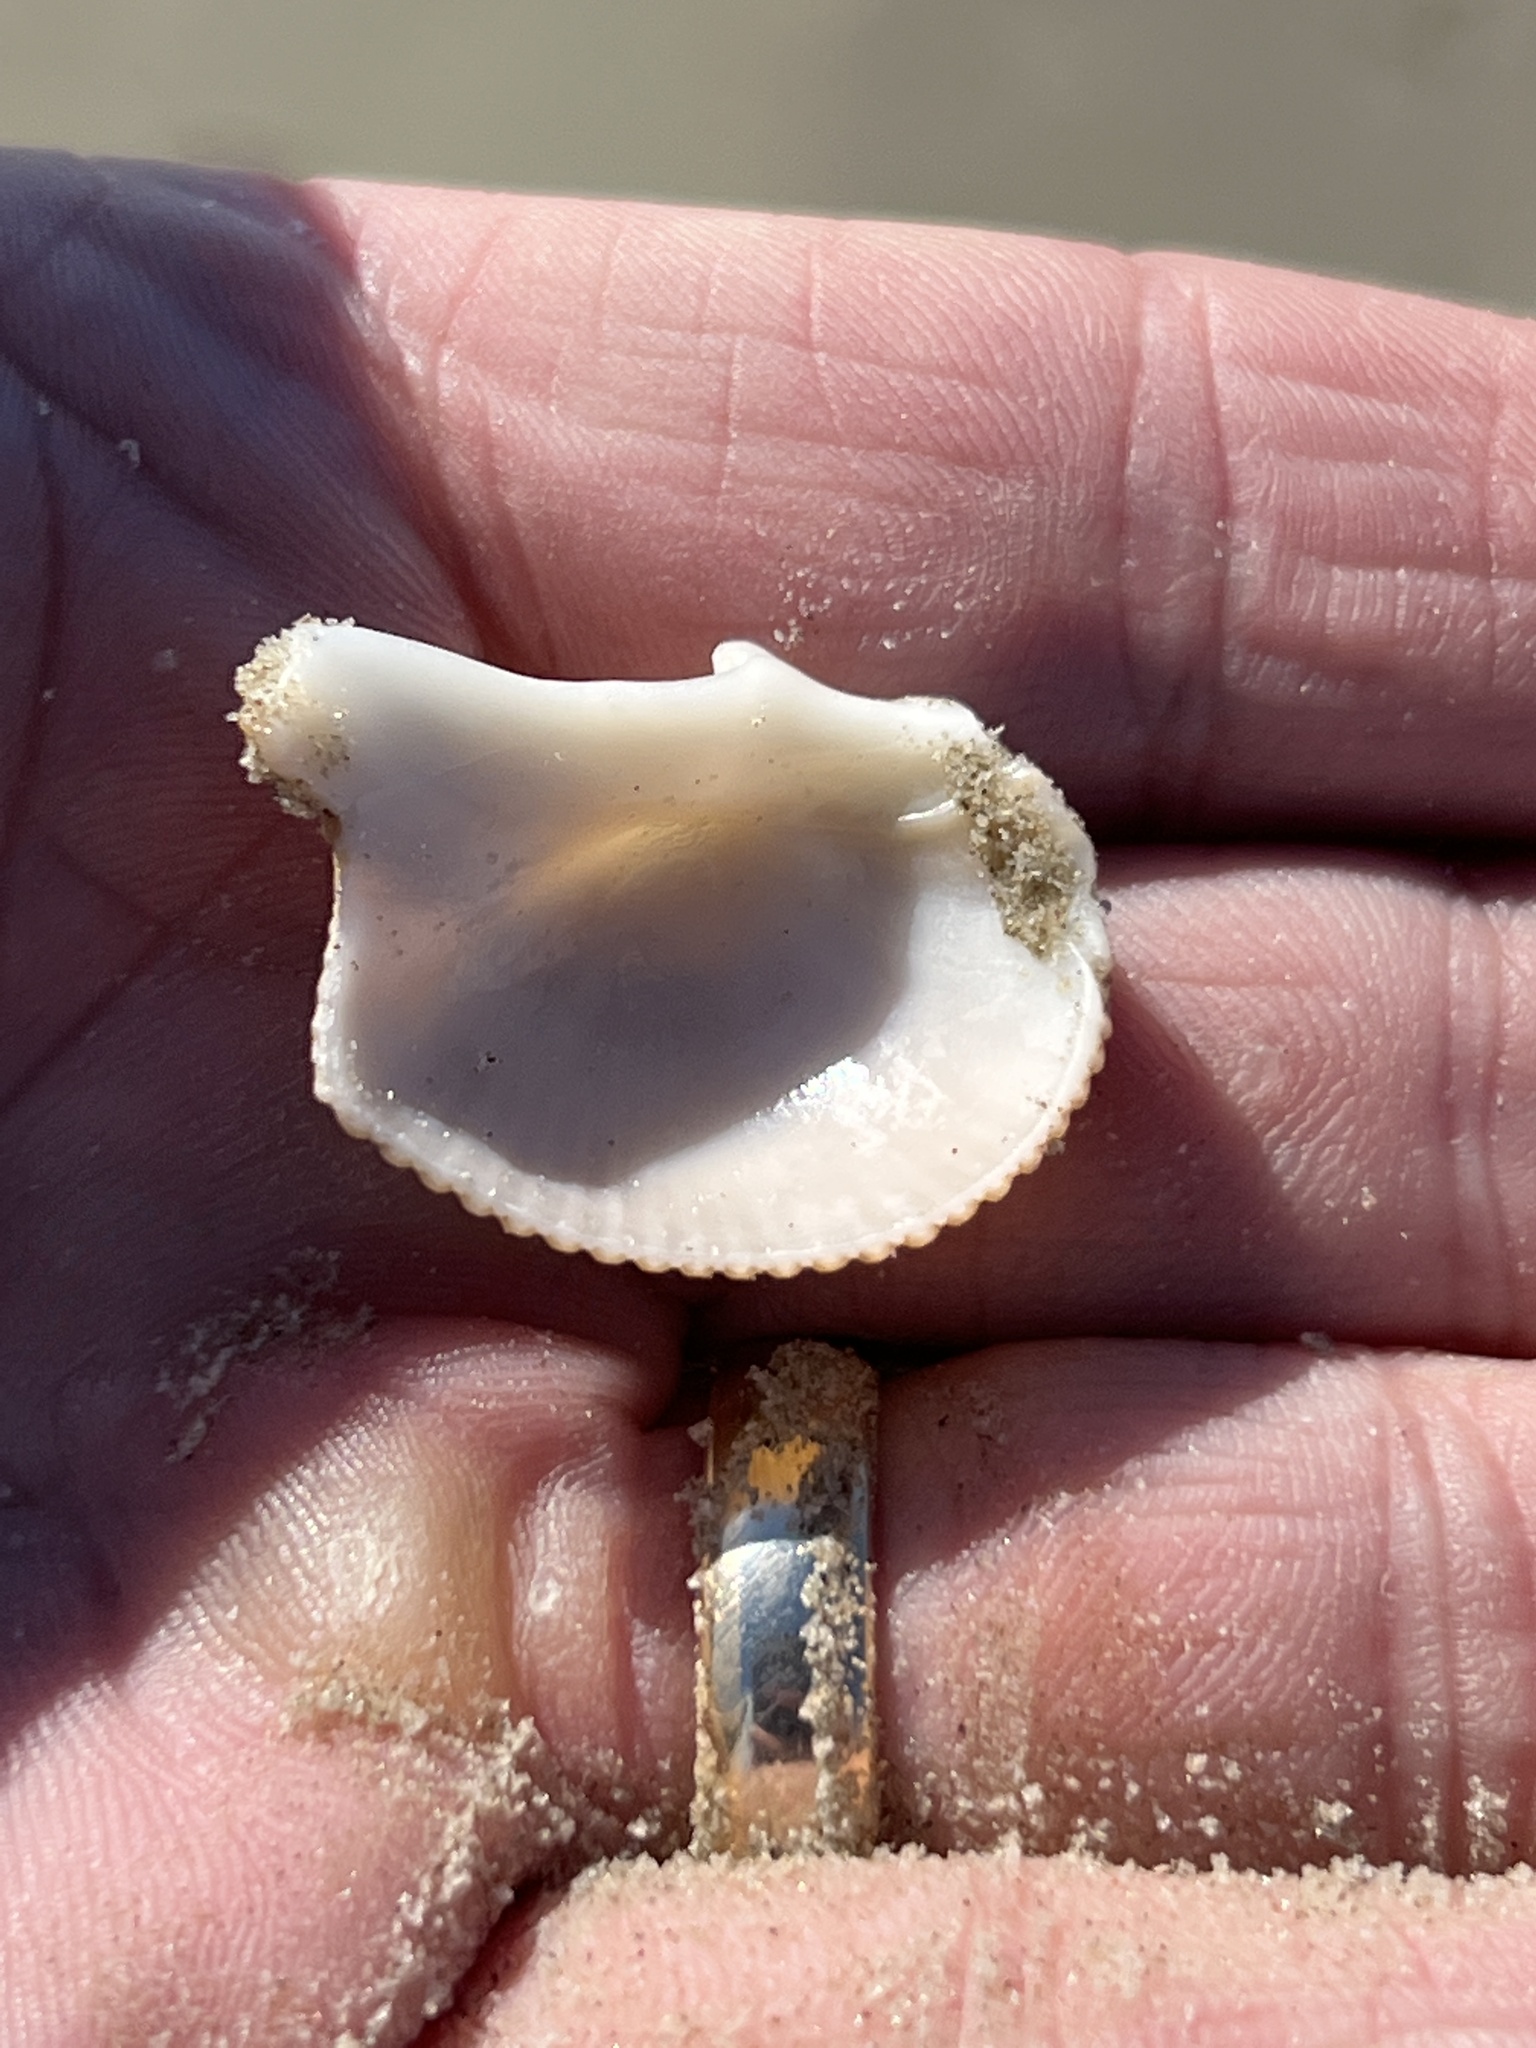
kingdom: Animalia
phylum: Mollusca
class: Bivalvia
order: Cardiida
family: Cardiidae
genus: Dinocardium
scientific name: Dinocardium robustum
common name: Atlantic giant cockle
